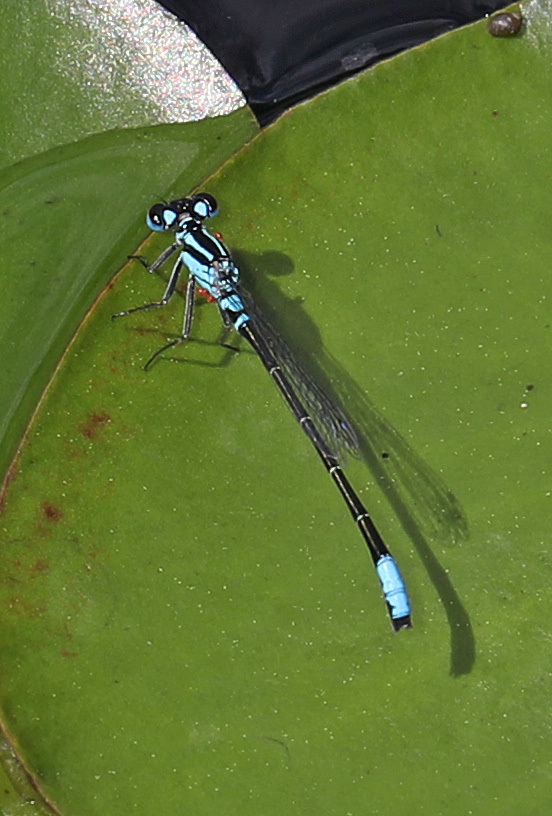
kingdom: Animalia
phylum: Arthropoda
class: Insecta
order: Odonata
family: Coenagrionidae
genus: Ischnura
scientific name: Ischnura kellicotti
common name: Lilypad forktail
